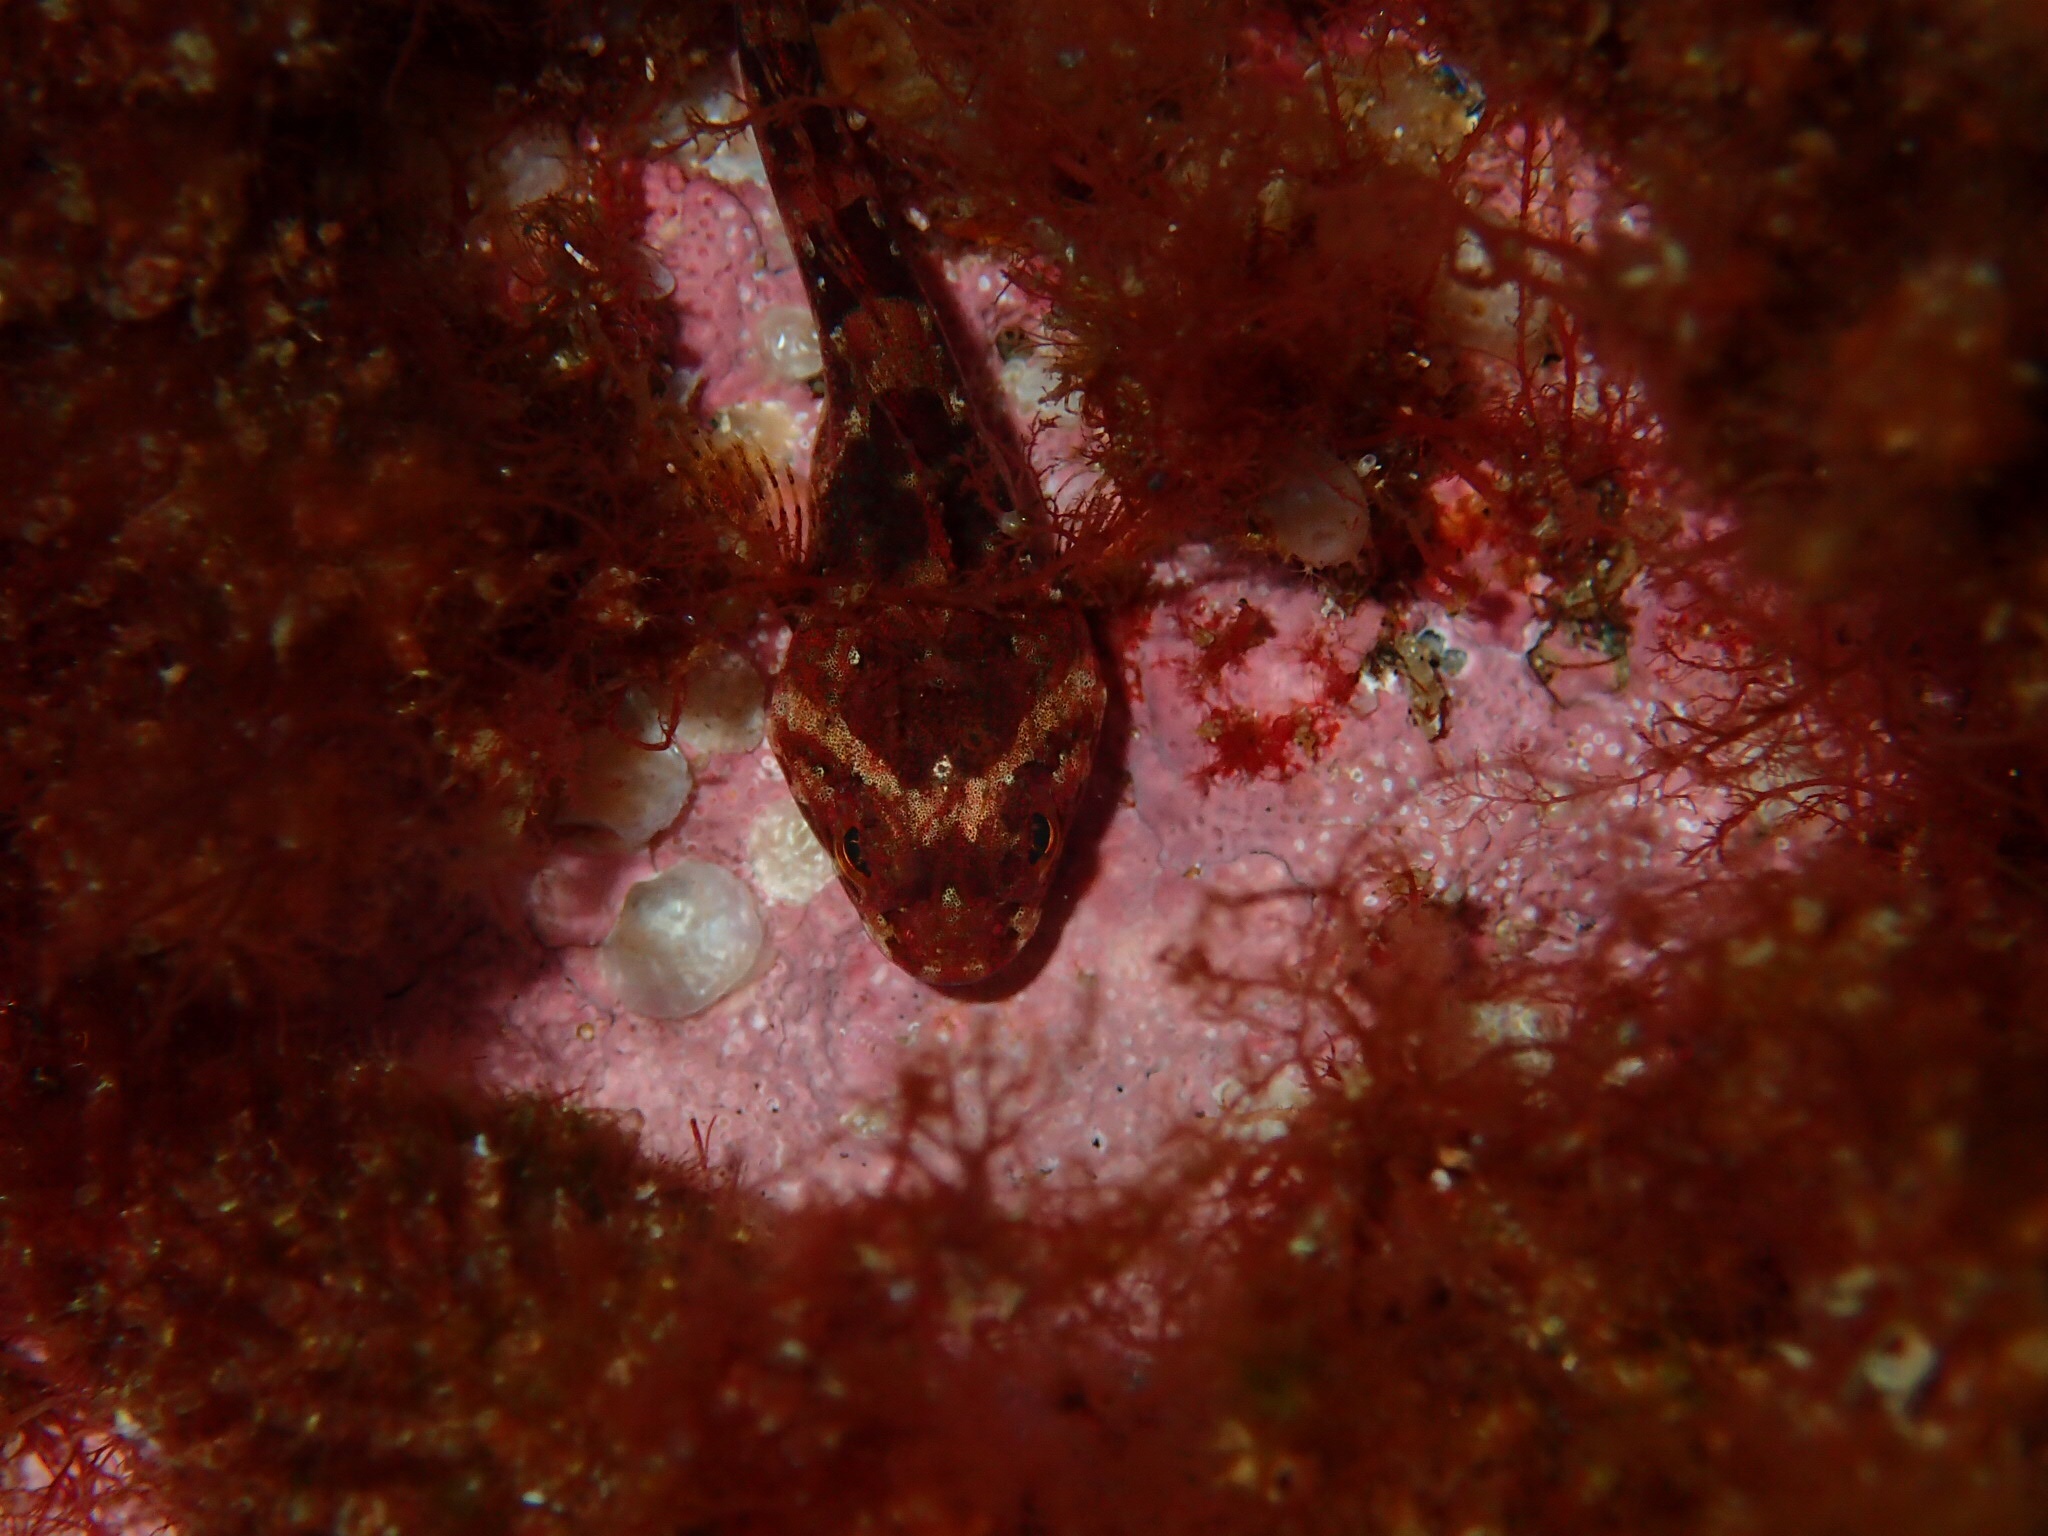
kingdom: Animalia
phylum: Chordata
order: Scorpaeniformes
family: Cottidae
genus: Myoxocephalus
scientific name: Myoxocephalus scorpius
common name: Shorthorn sculpin
